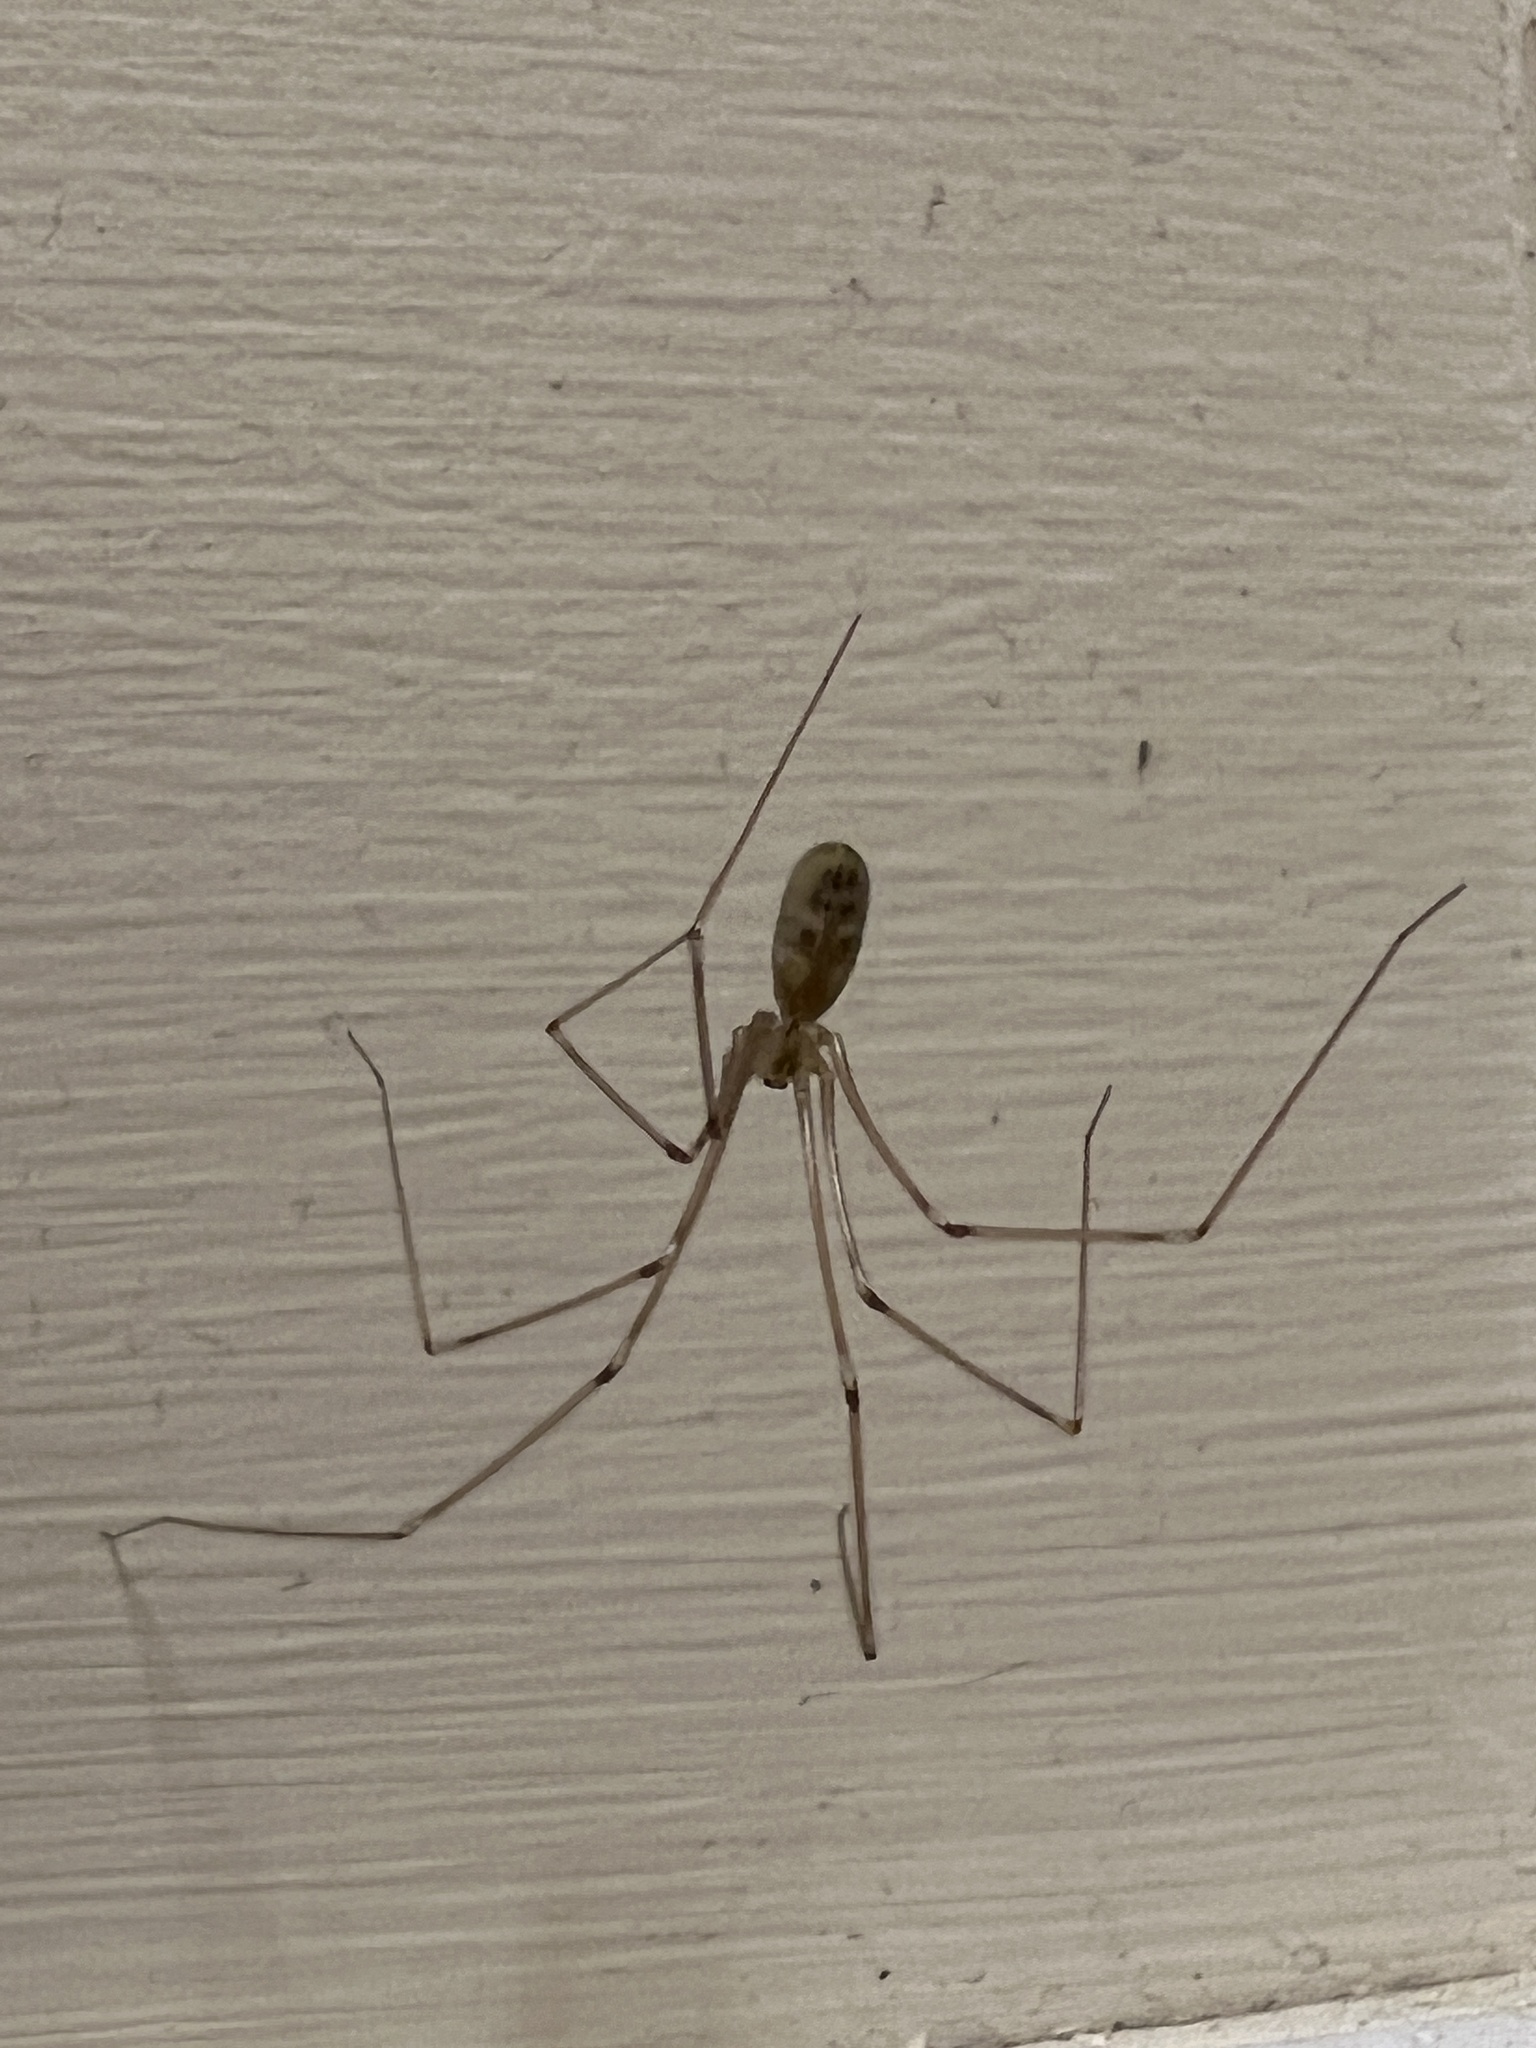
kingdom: Animalia
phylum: Arthropoda
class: Arachnida
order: Araneae
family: Pholcidae
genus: Pholcus
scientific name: Pholcus phalangioides
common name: Longbodied cellar spider
